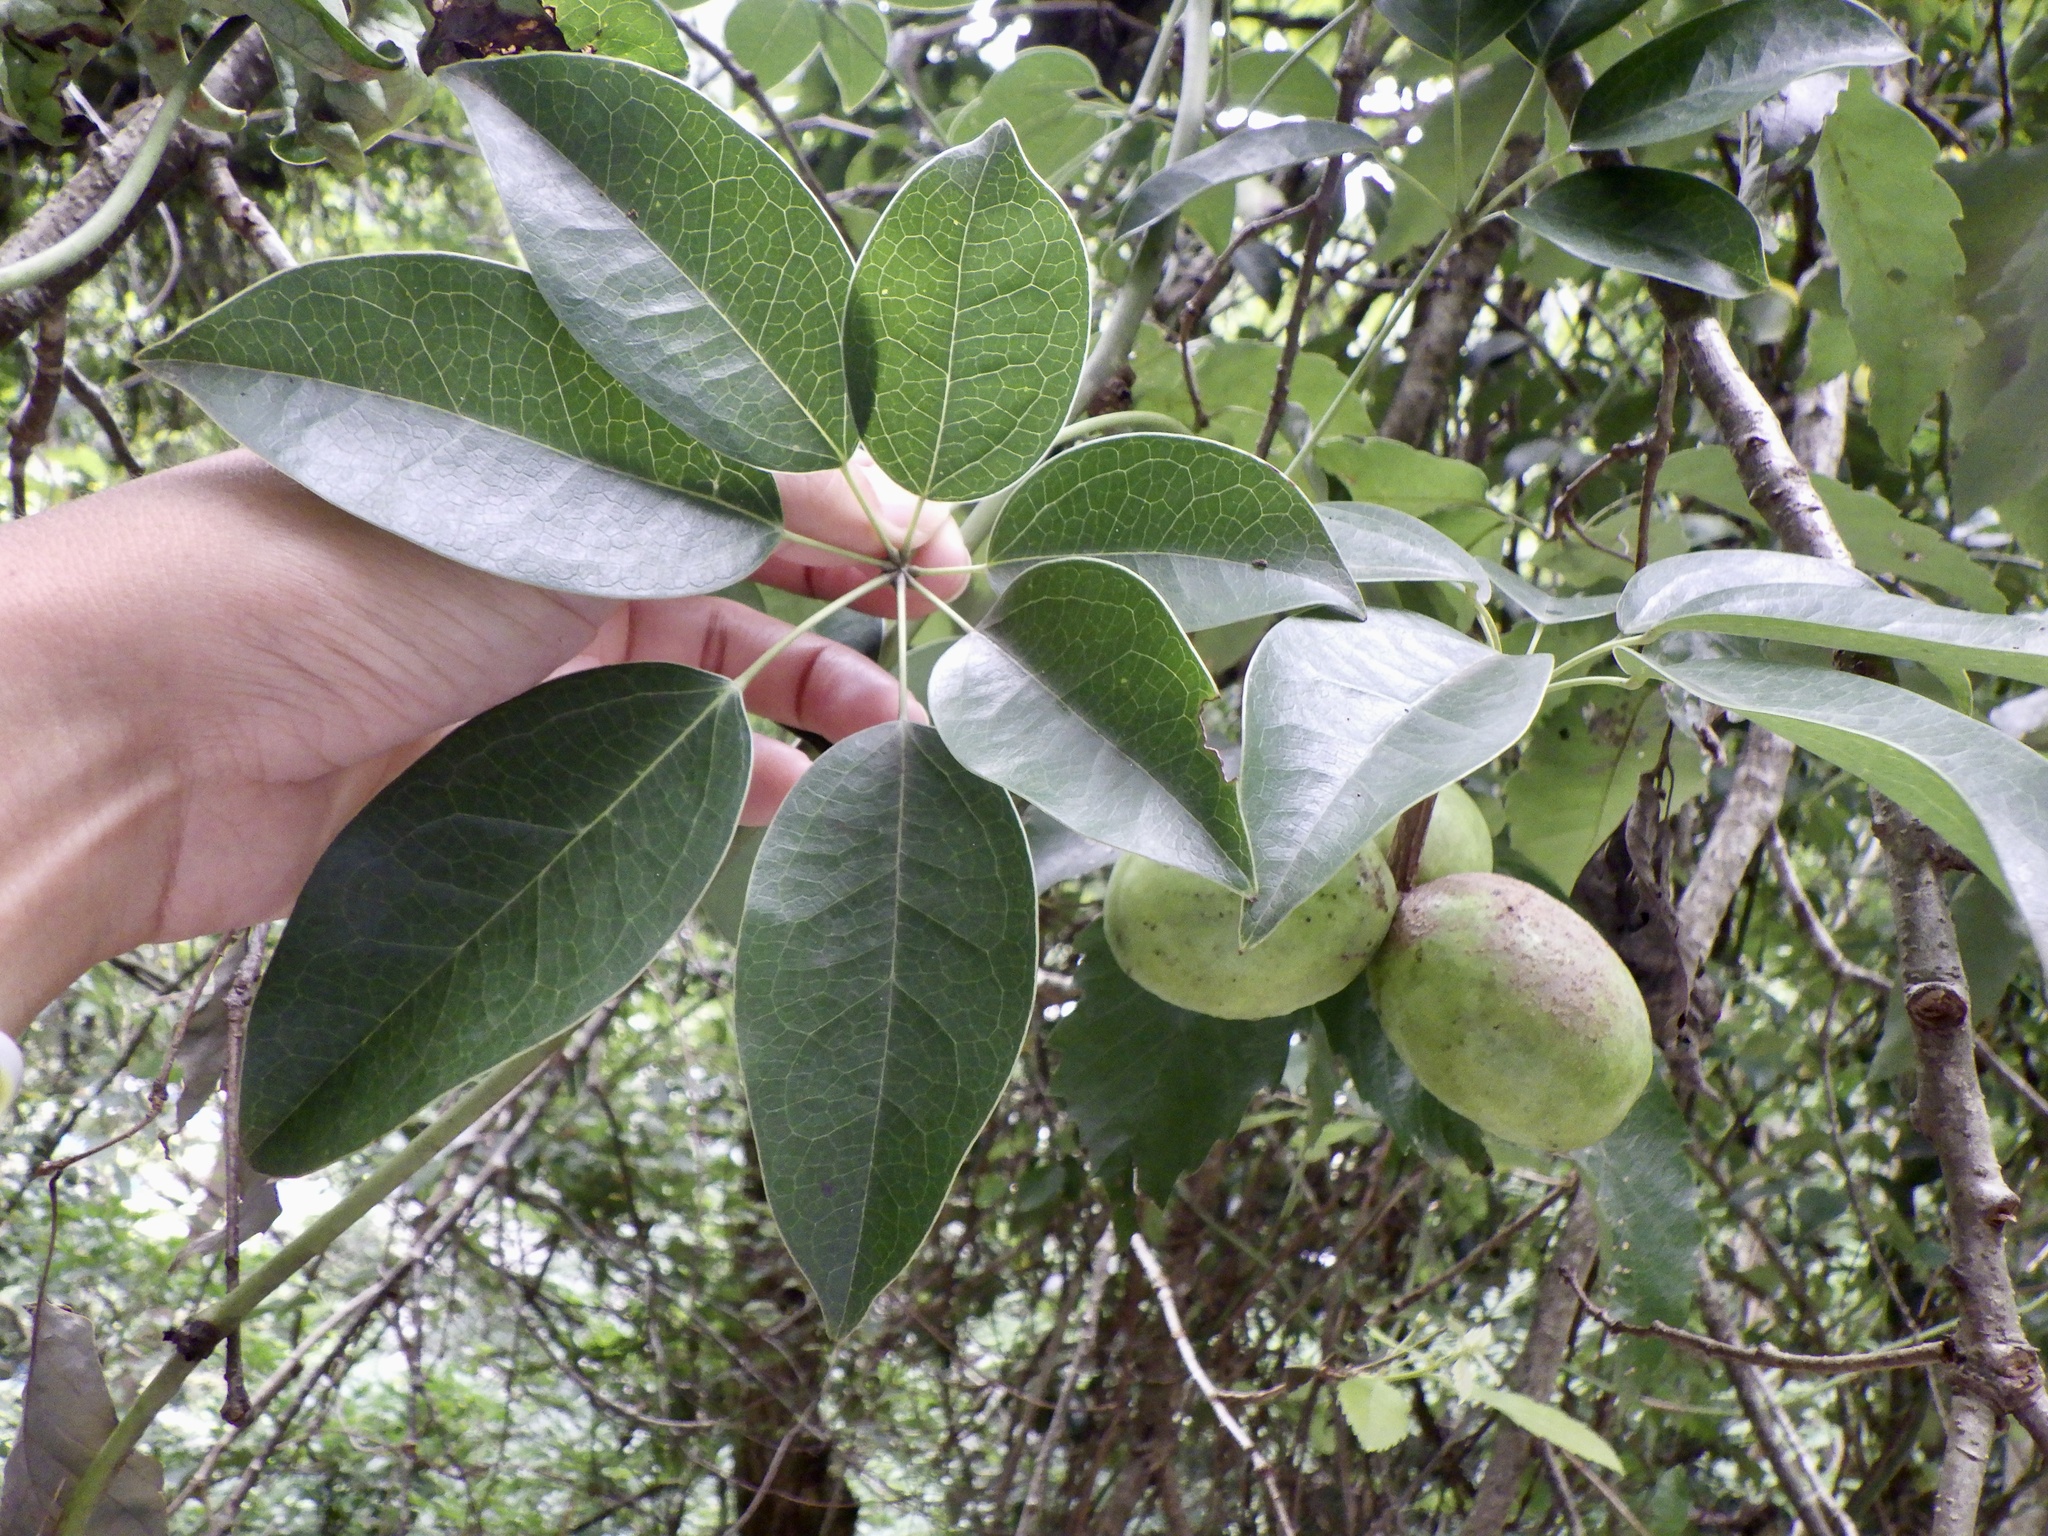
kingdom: Plantae
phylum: Tracheophyta
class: Magnoliopsida
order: Ranunculales
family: Lardizabalaceae
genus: Stauntonia
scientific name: Stauntonia hexaphylla
